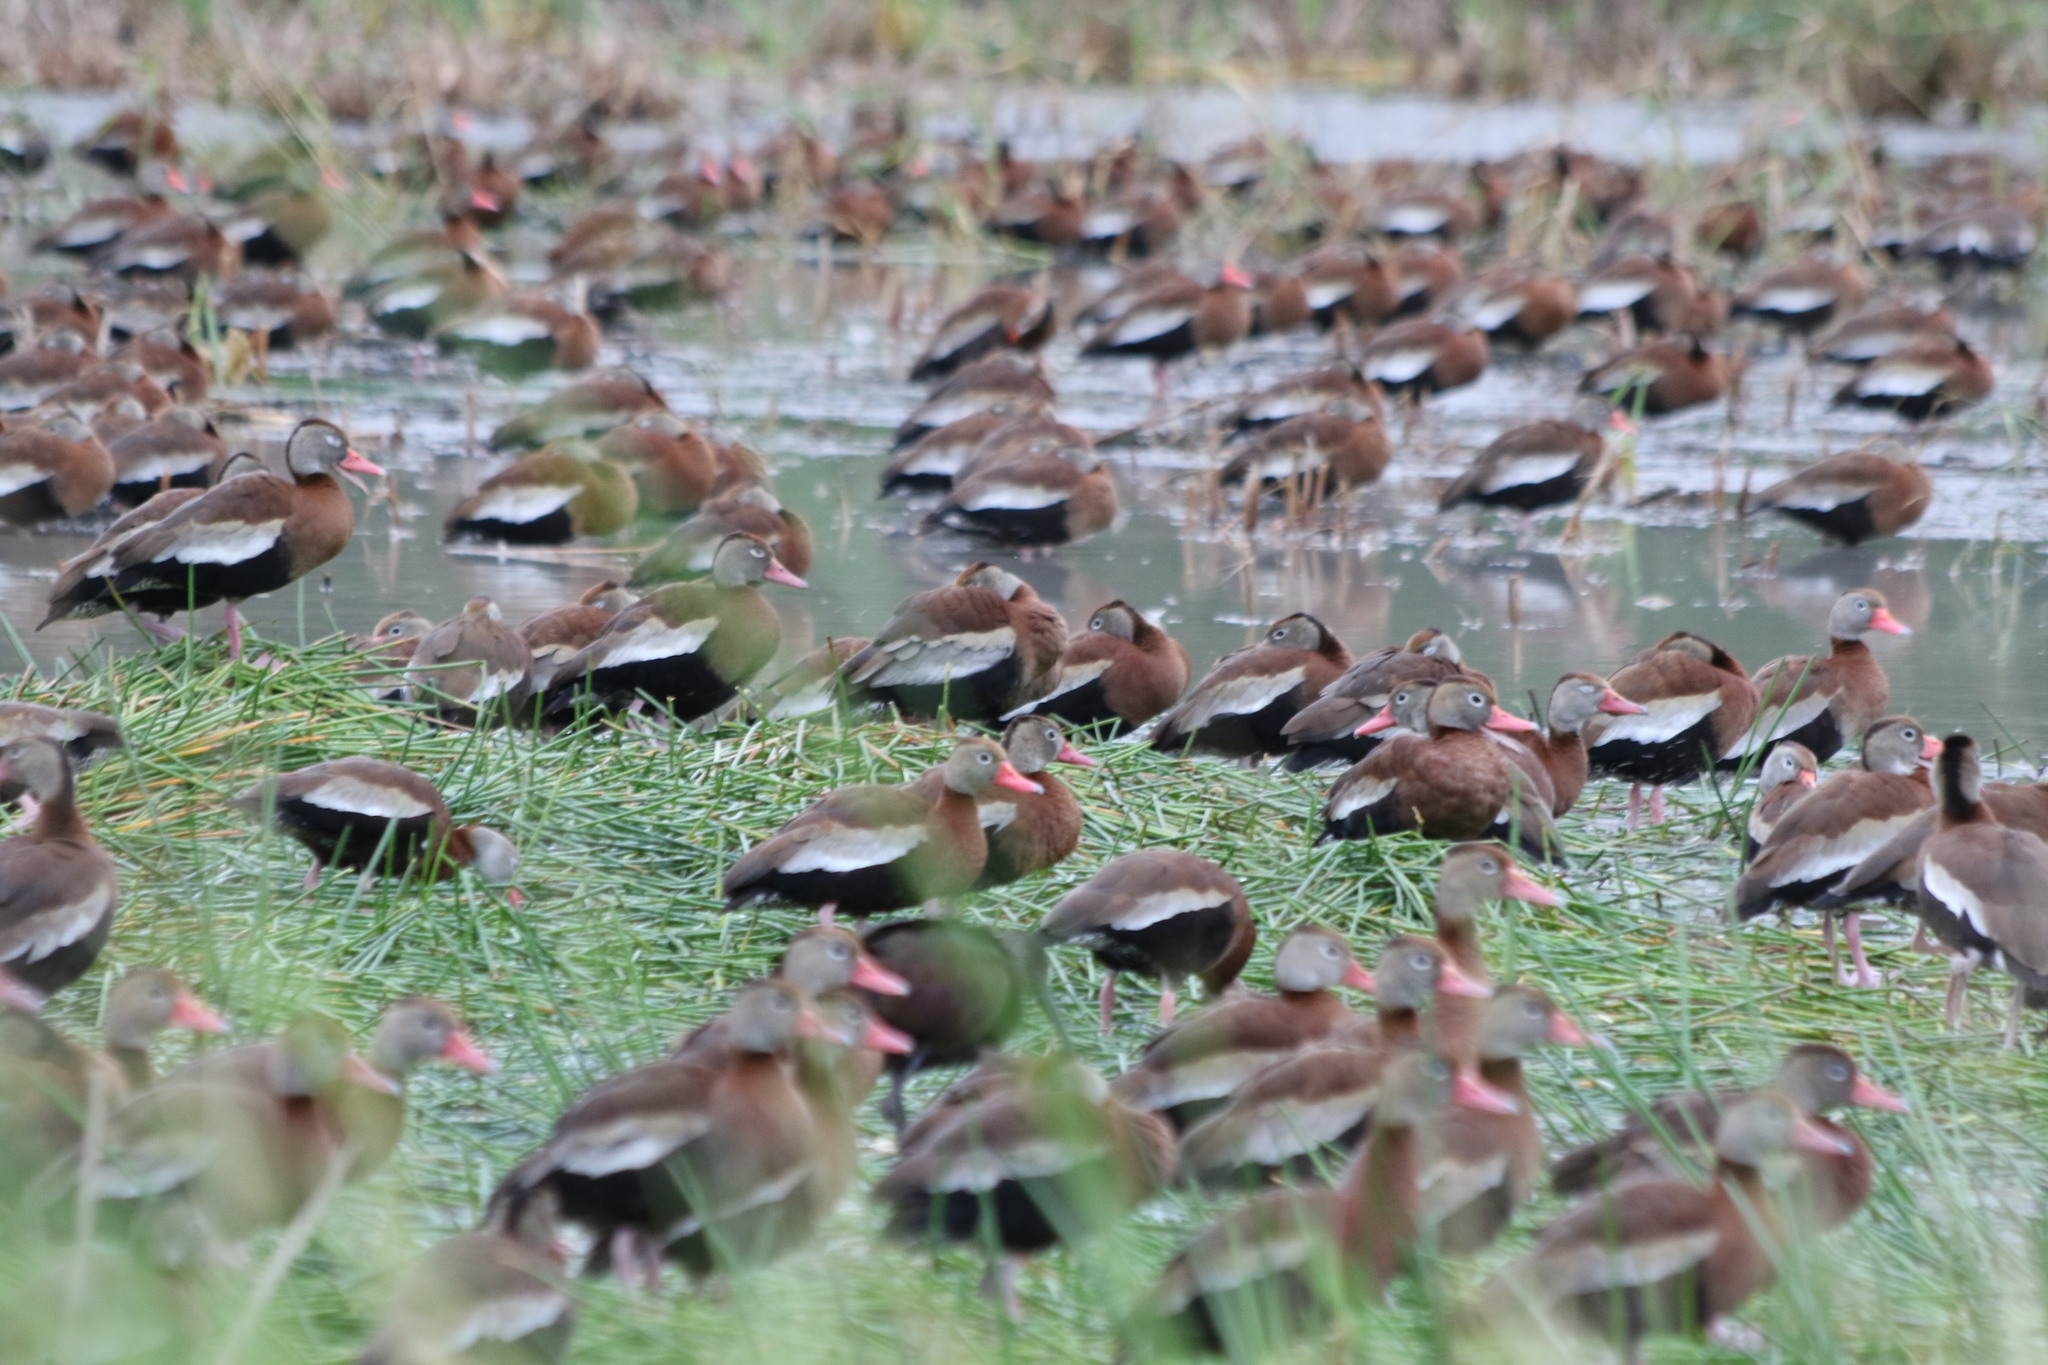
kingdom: Animalia
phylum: Chordata
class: Aves
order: Anseriformes
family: Anatidae
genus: Dendrocygna
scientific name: Dendrocygna autumnalis
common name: Black-bellied whistling duck
